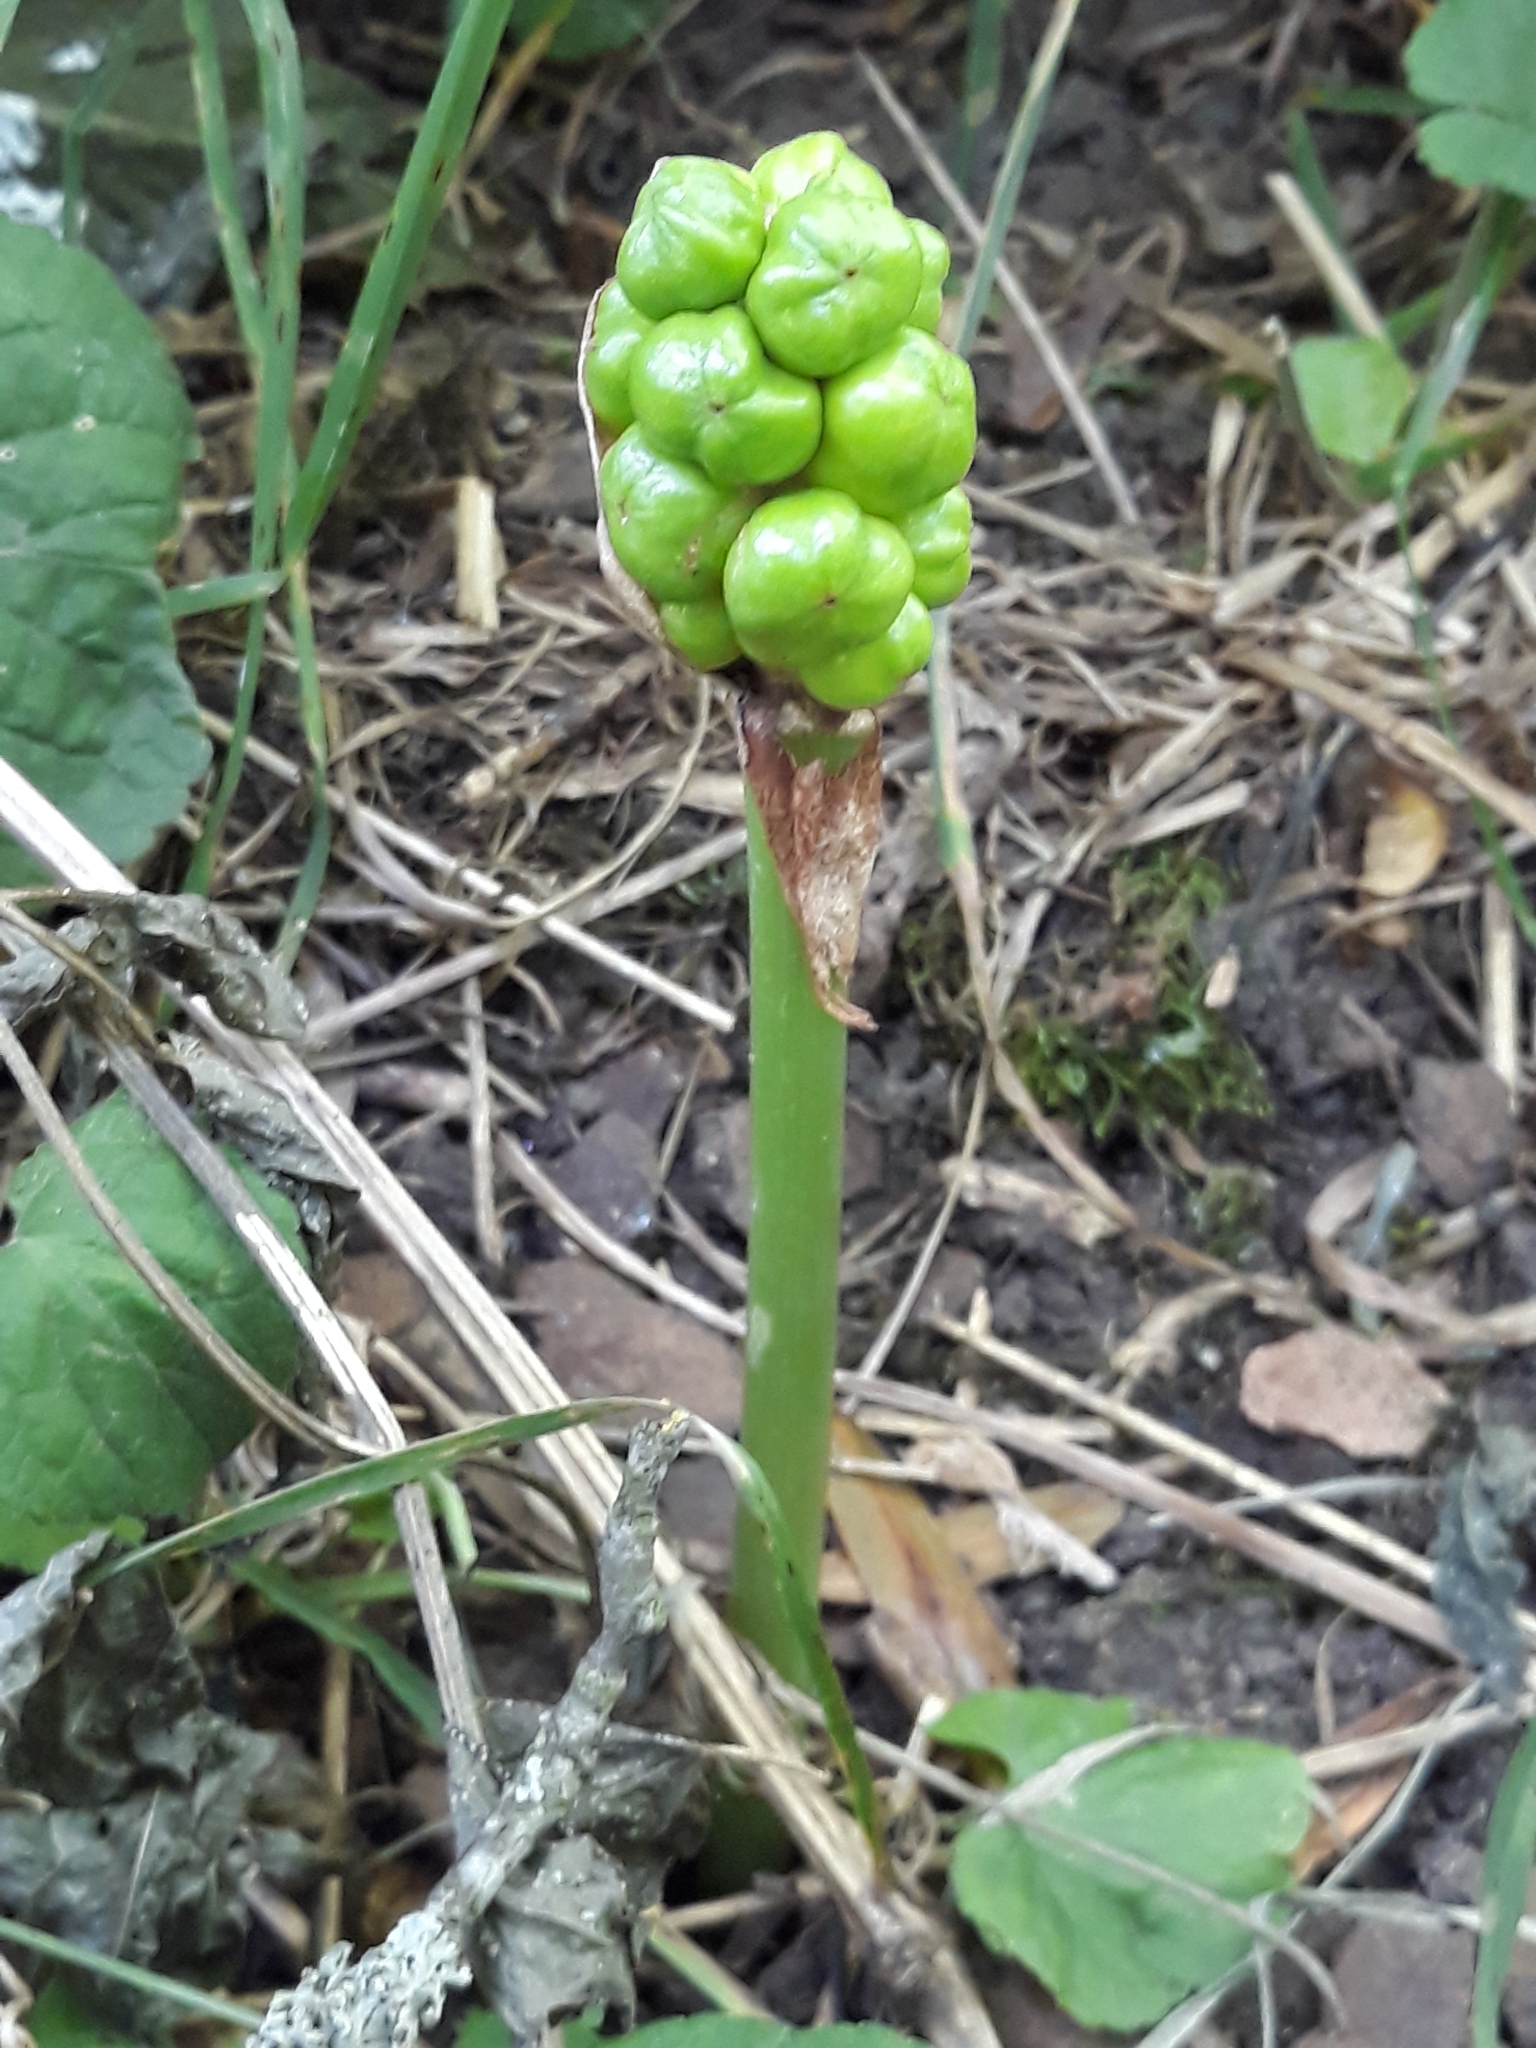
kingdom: Plantae
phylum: Tracheophyta
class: Liliopsida
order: Alismatales
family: Araceae
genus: Arum
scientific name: Arum maculatum
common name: Lords-and-ladies
